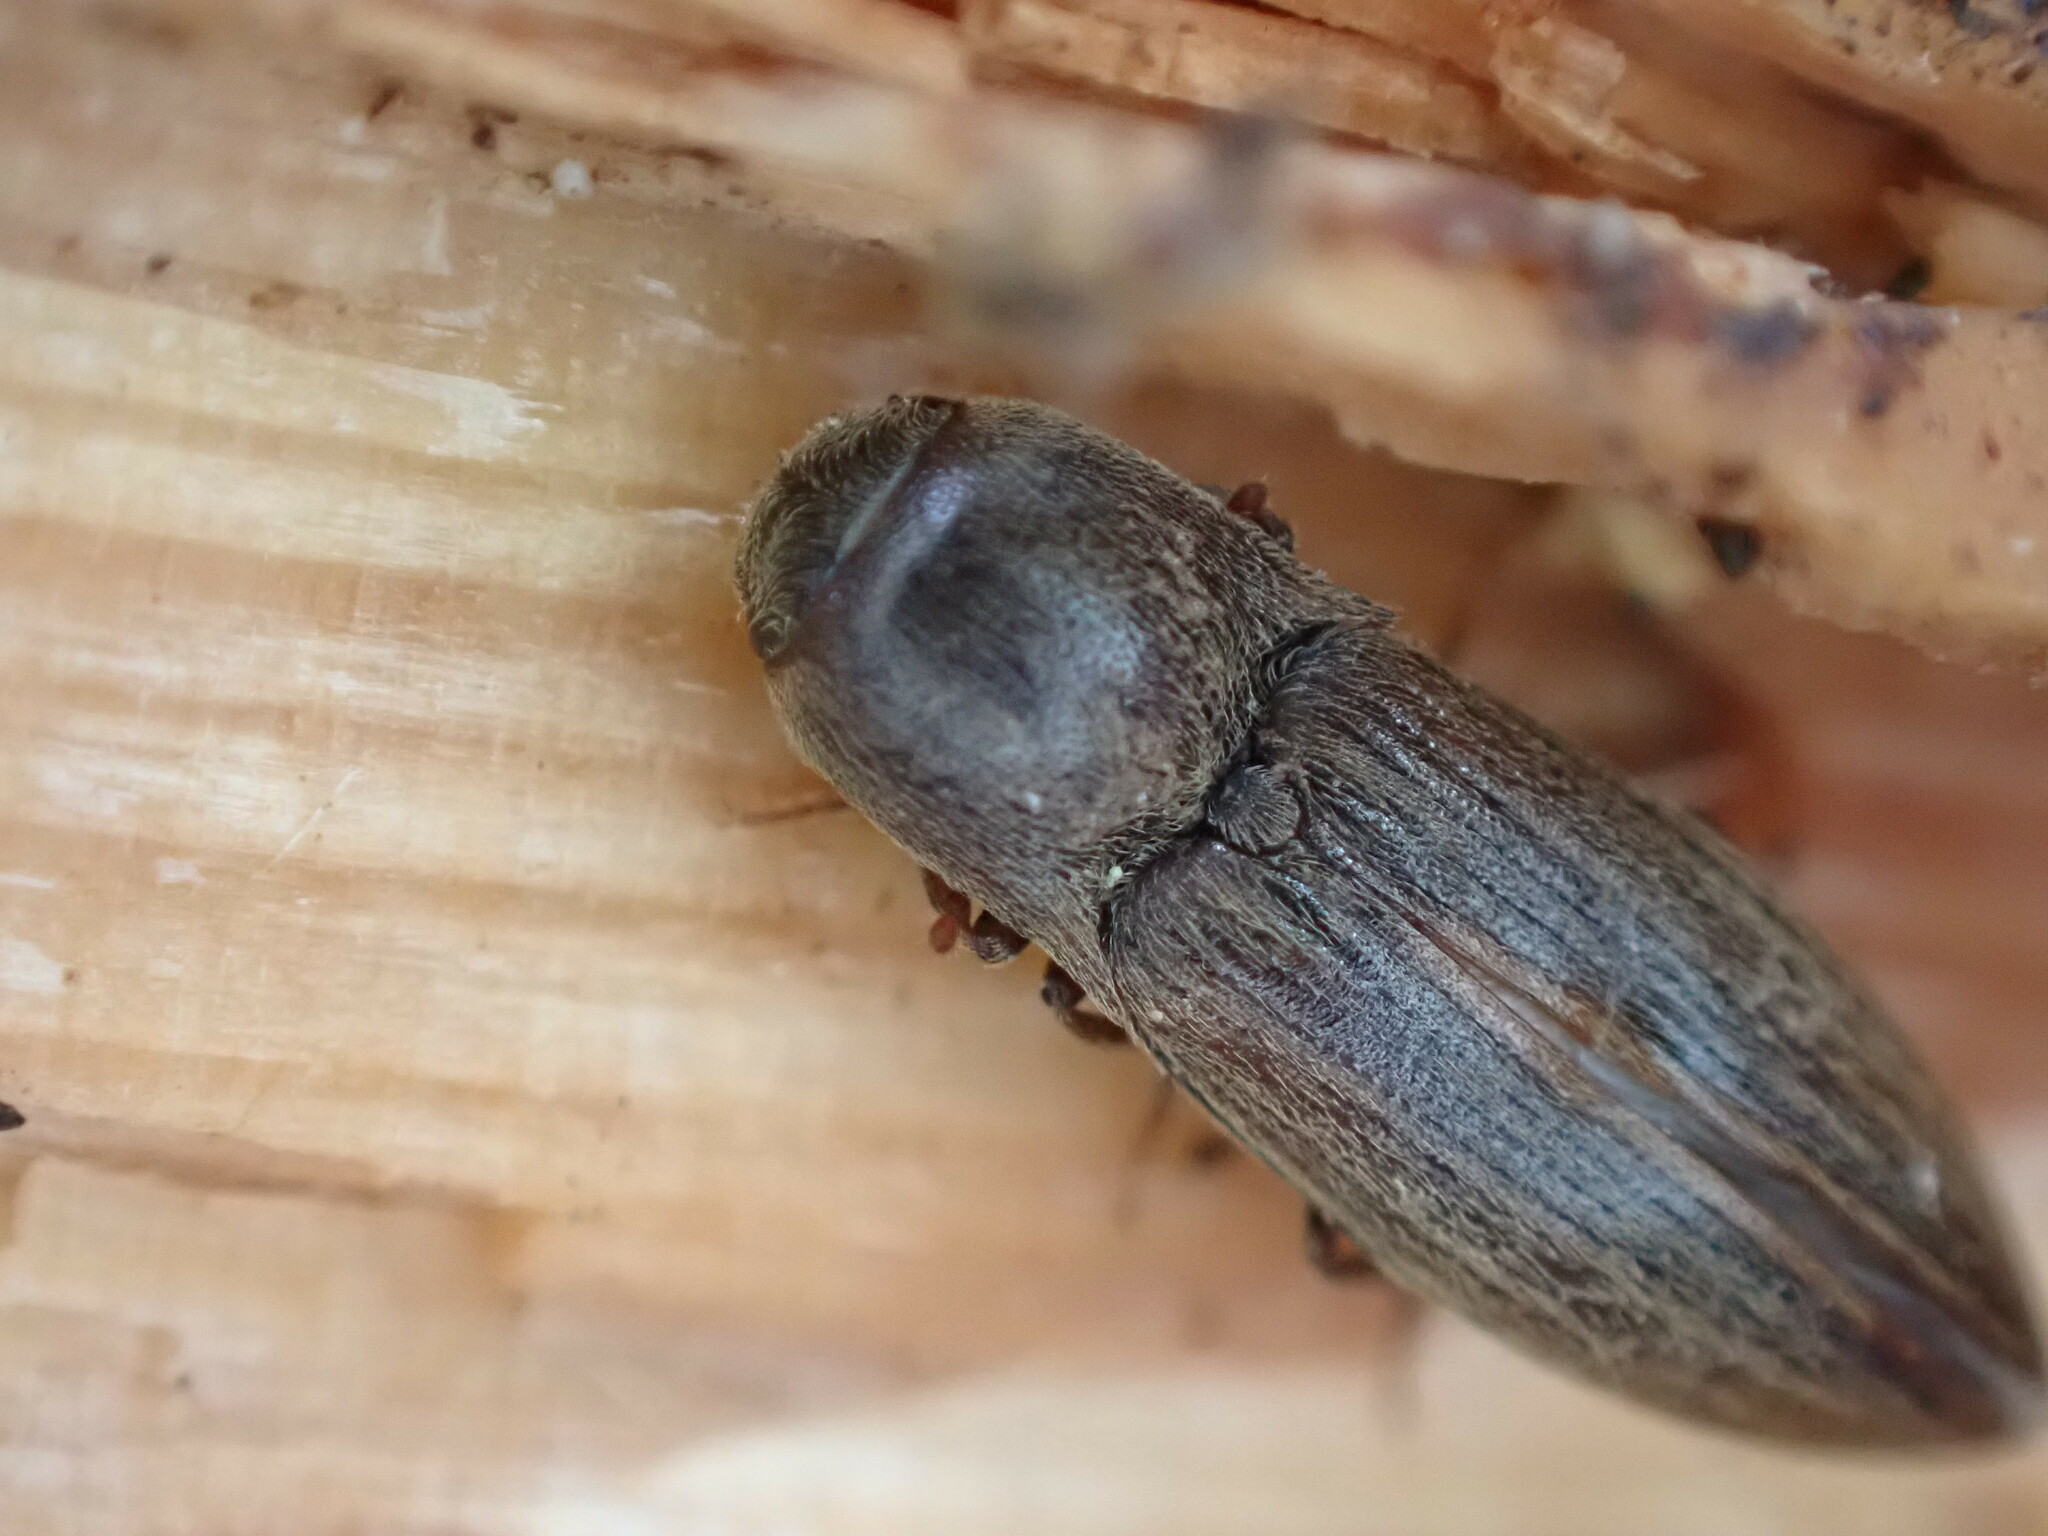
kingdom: Animalia
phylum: Arthropoda
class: Insecta
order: Coleoptera
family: Elateridae
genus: Agriotes
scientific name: Agriotes lineatus
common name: Lined click beetle
